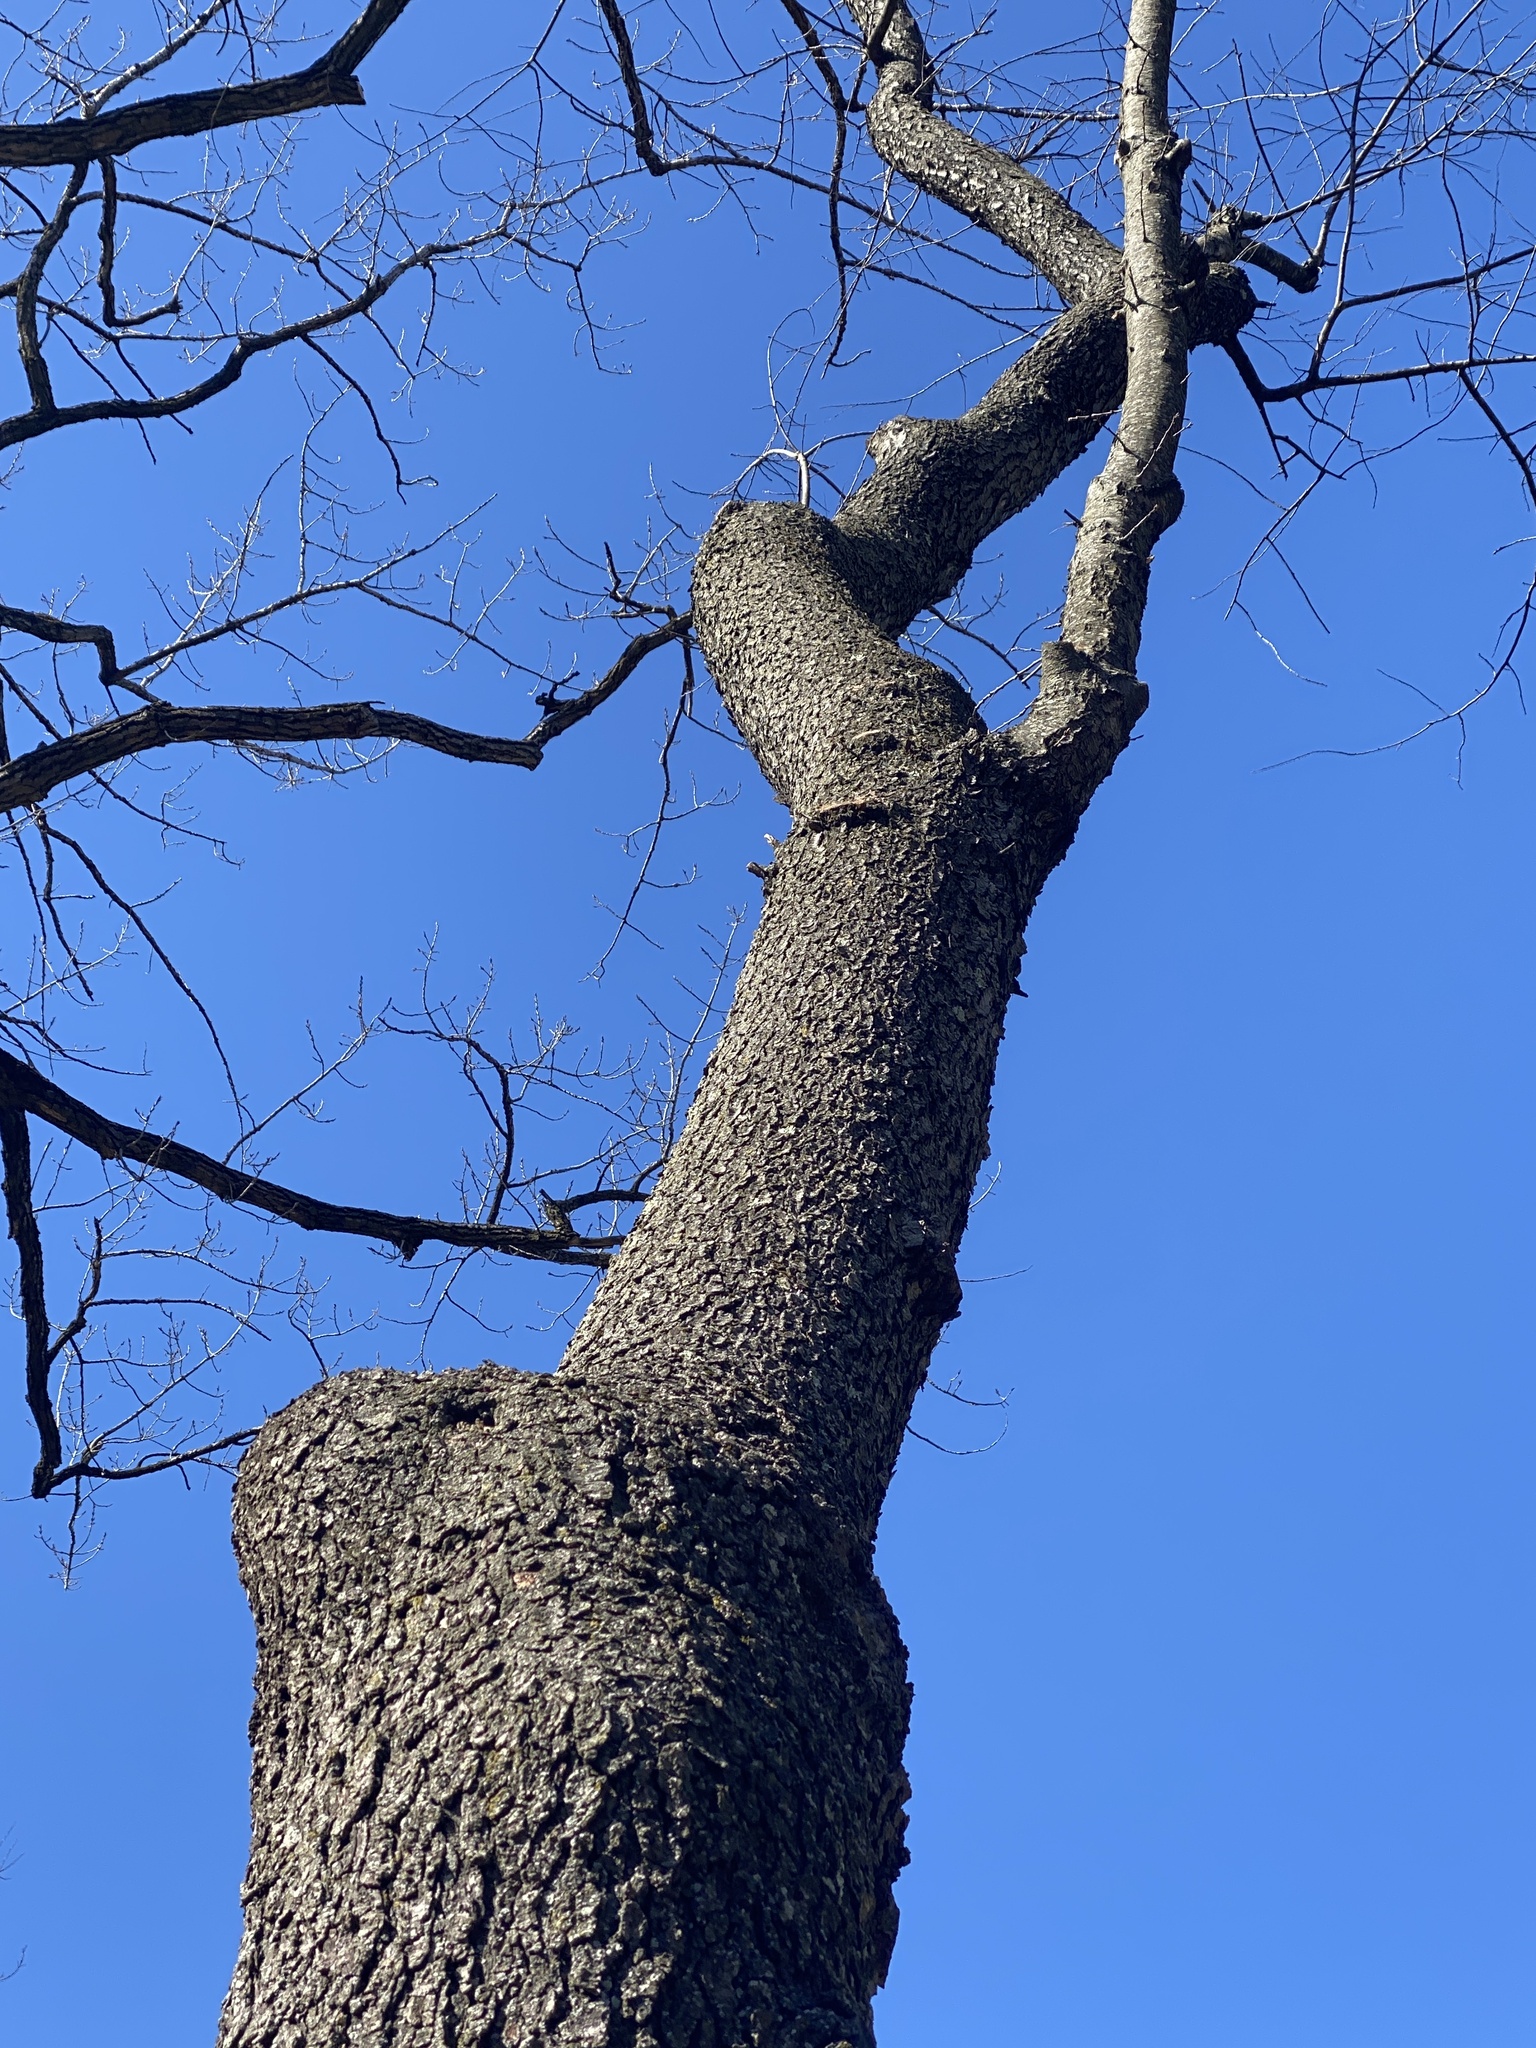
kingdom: Plantae
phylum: Tracheophyta
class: Magnoliopsida
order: Rosales
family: Rosaceae
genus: Prunus
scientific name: Prunus serotina
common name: Black cherry
